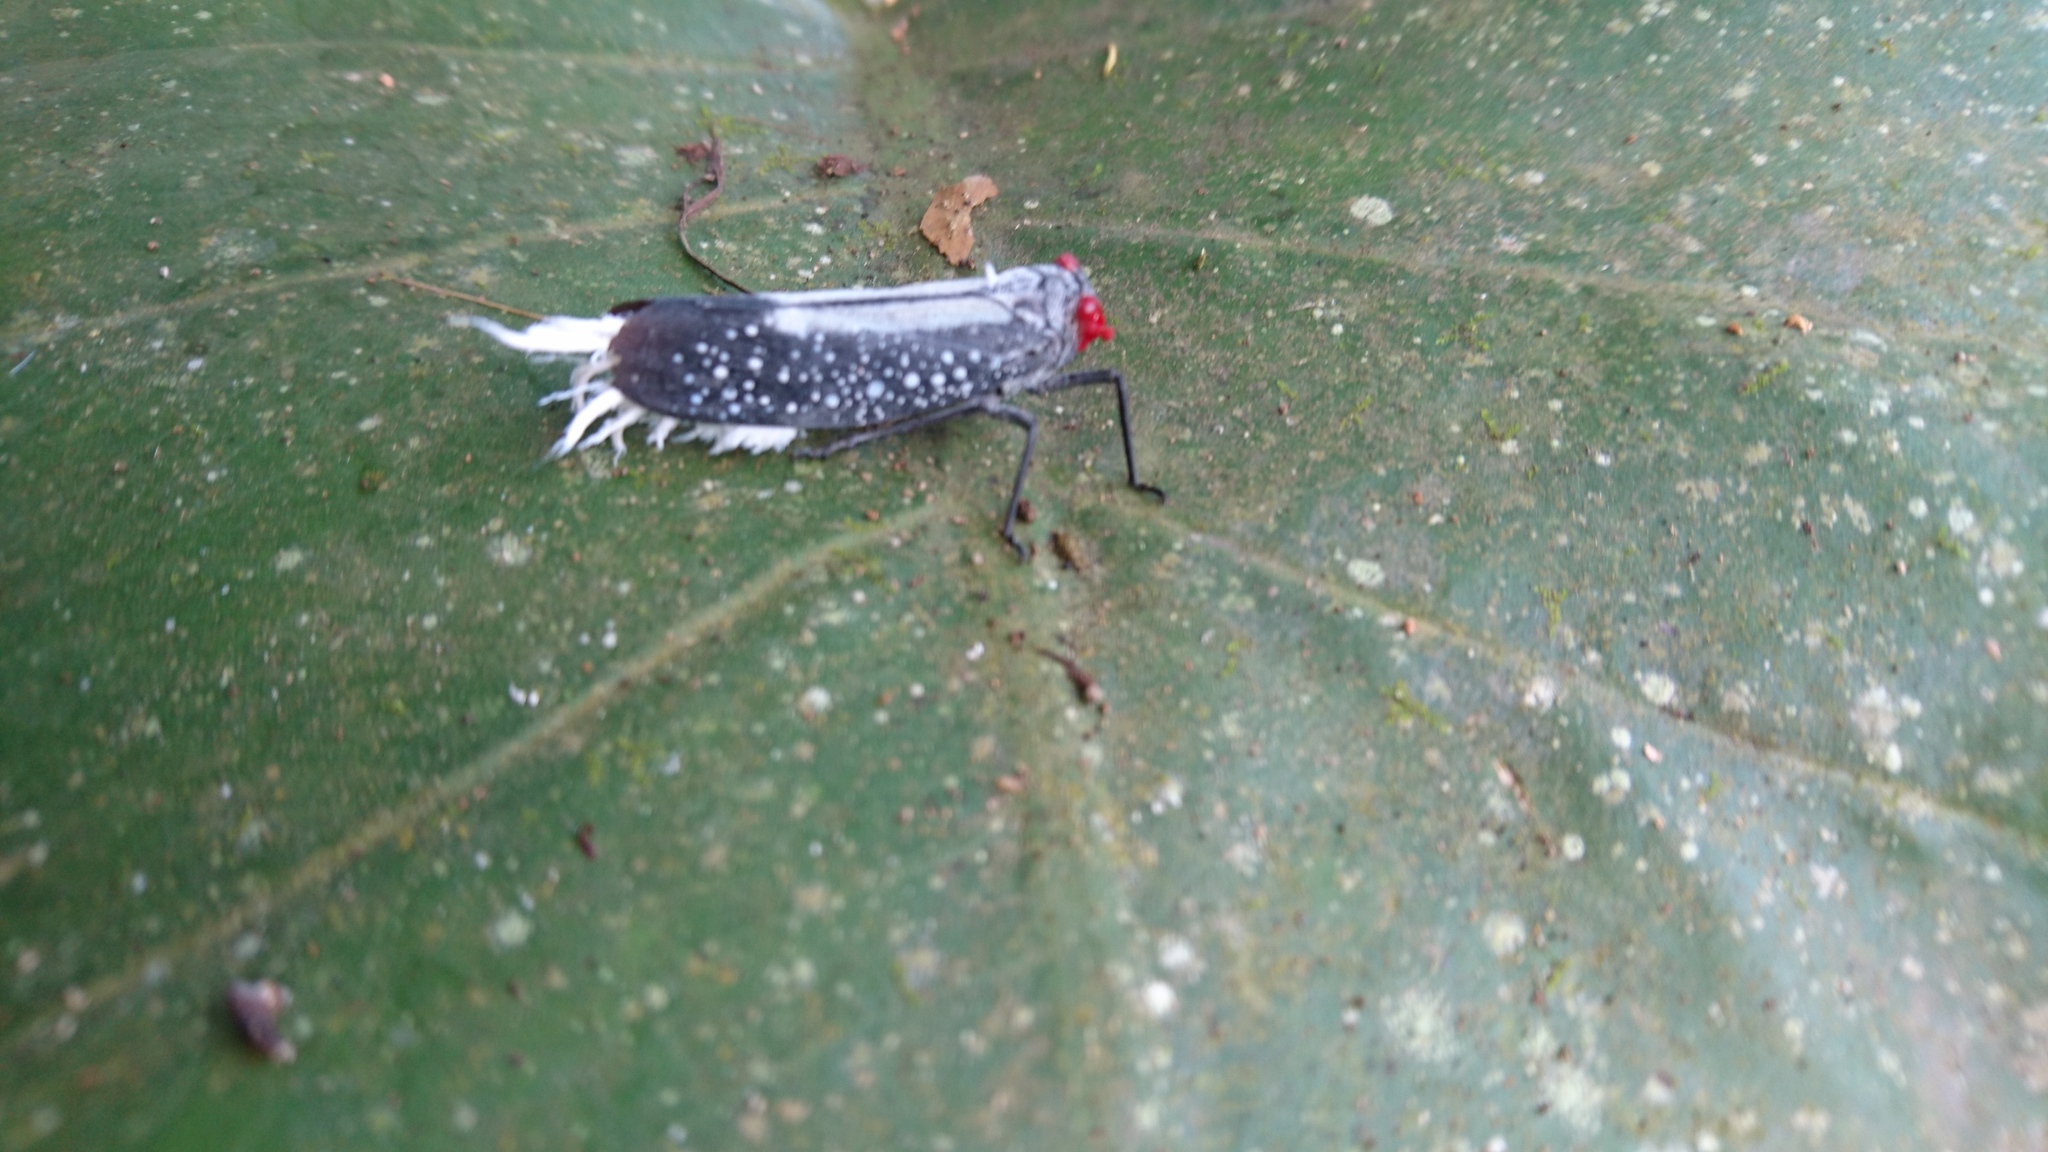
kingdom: Animalia
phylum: Arthropoda
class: Insecta
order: Hemiptera
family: Fulgoridae
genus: Lystra
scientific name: Lystra lanata
